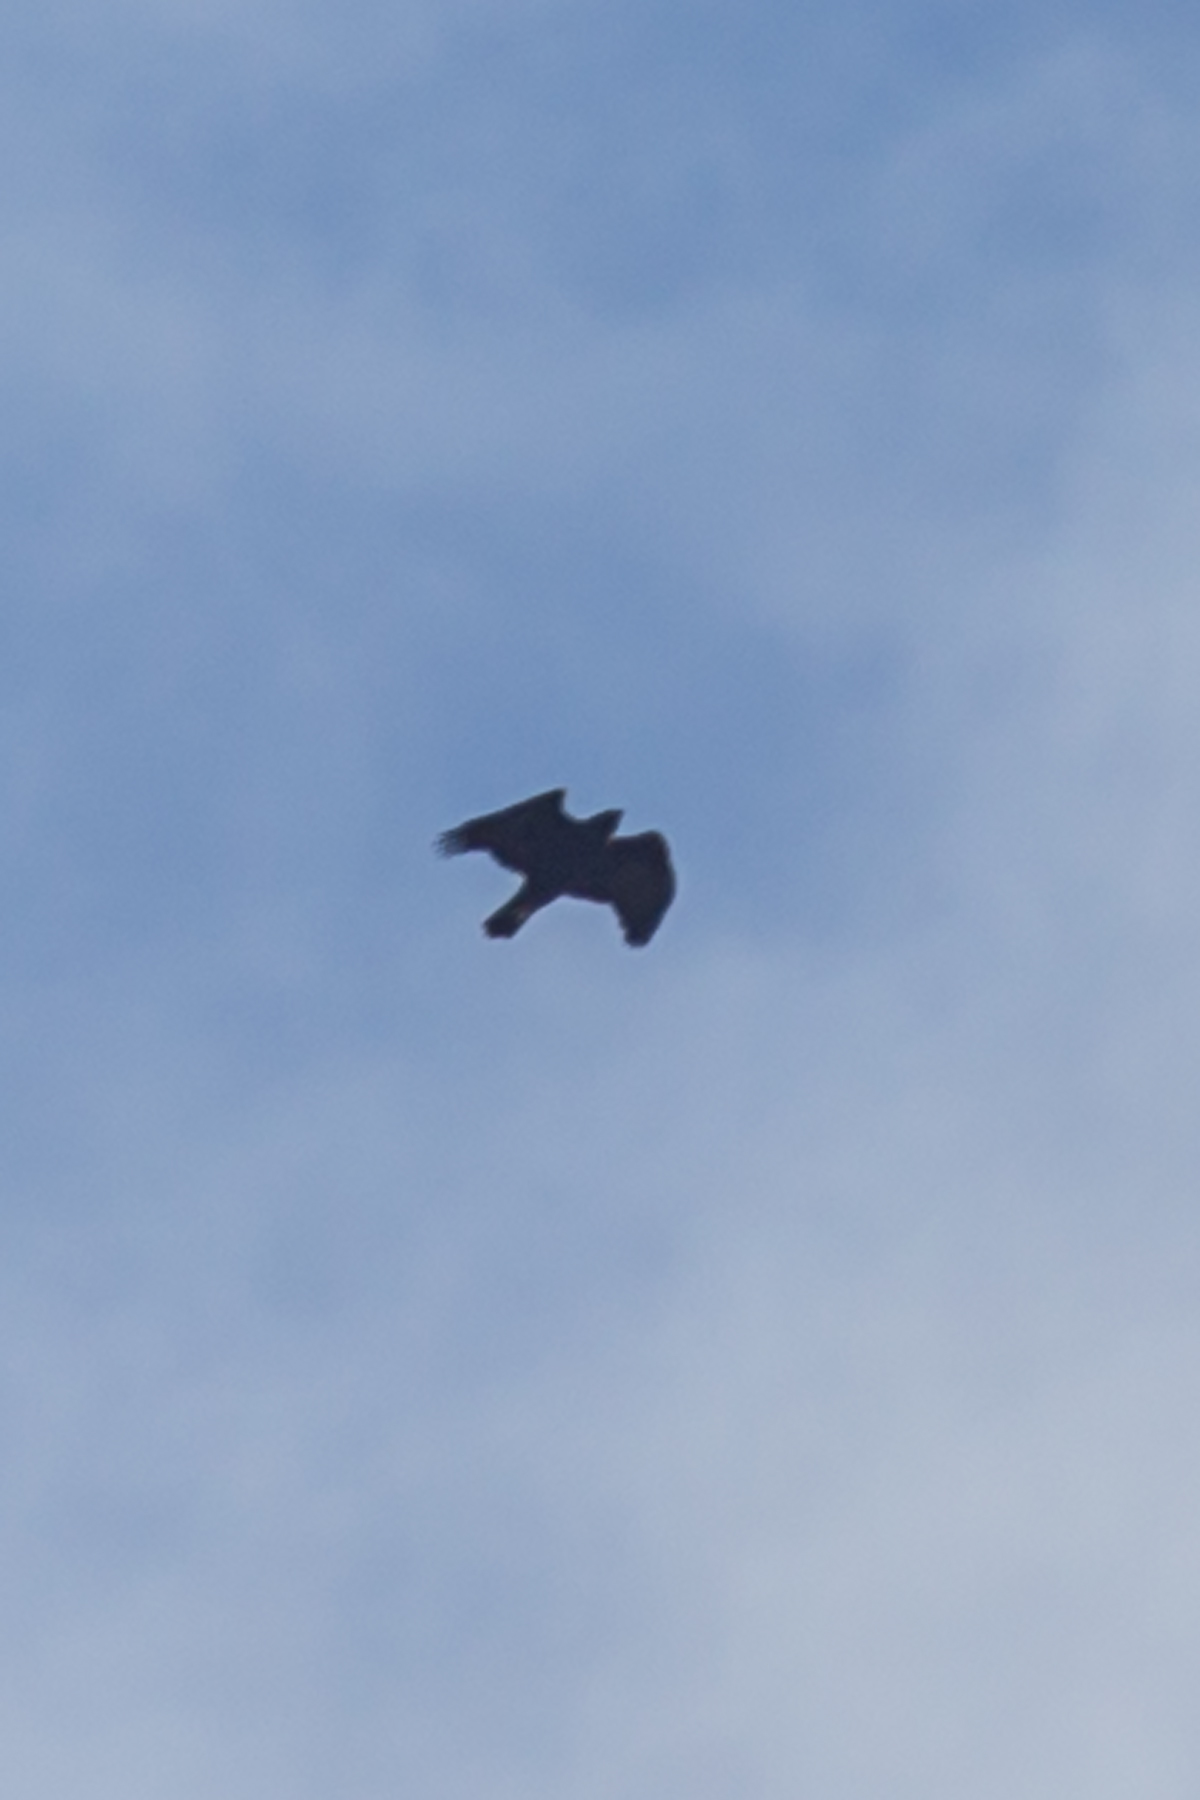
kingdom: Animalia
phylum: Chordata
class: Aves
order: Accipitriformes
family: Accipitridae
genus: Aquila
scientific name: Aquila chrysaetos
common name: Golden eagle
